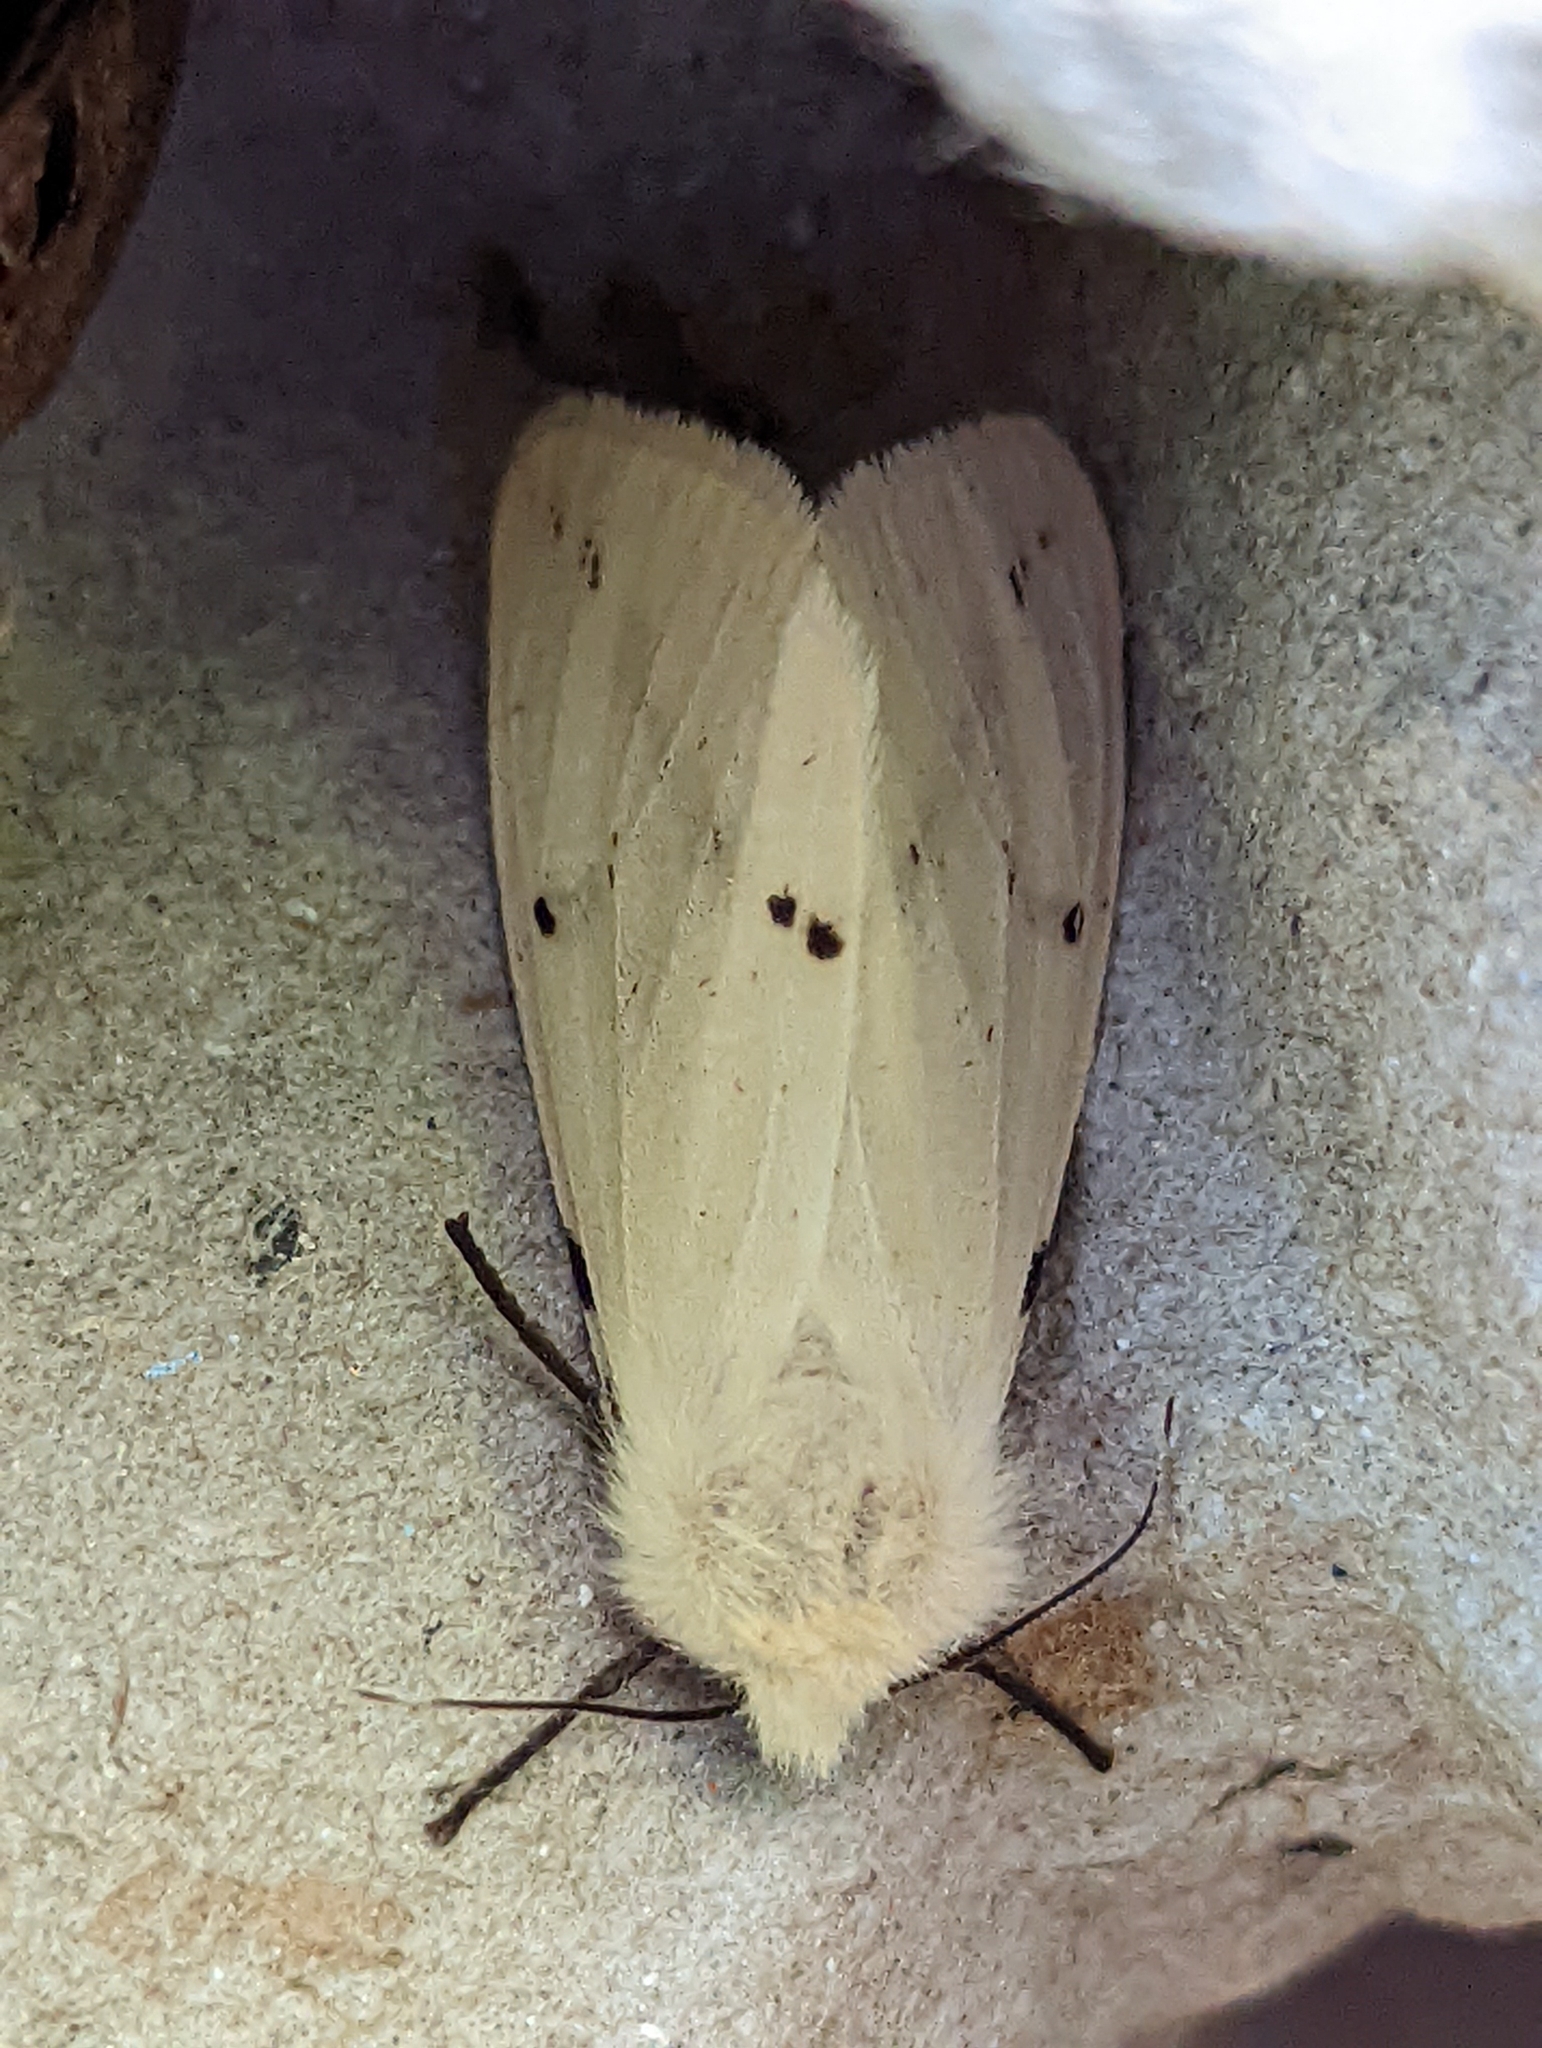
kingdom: Animalia
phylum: Arthropoda
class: Insecta
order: Lepidoptera
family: Erebidae
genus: Spilarctia
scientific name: Spilarctia lutea
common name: Buff ermine
